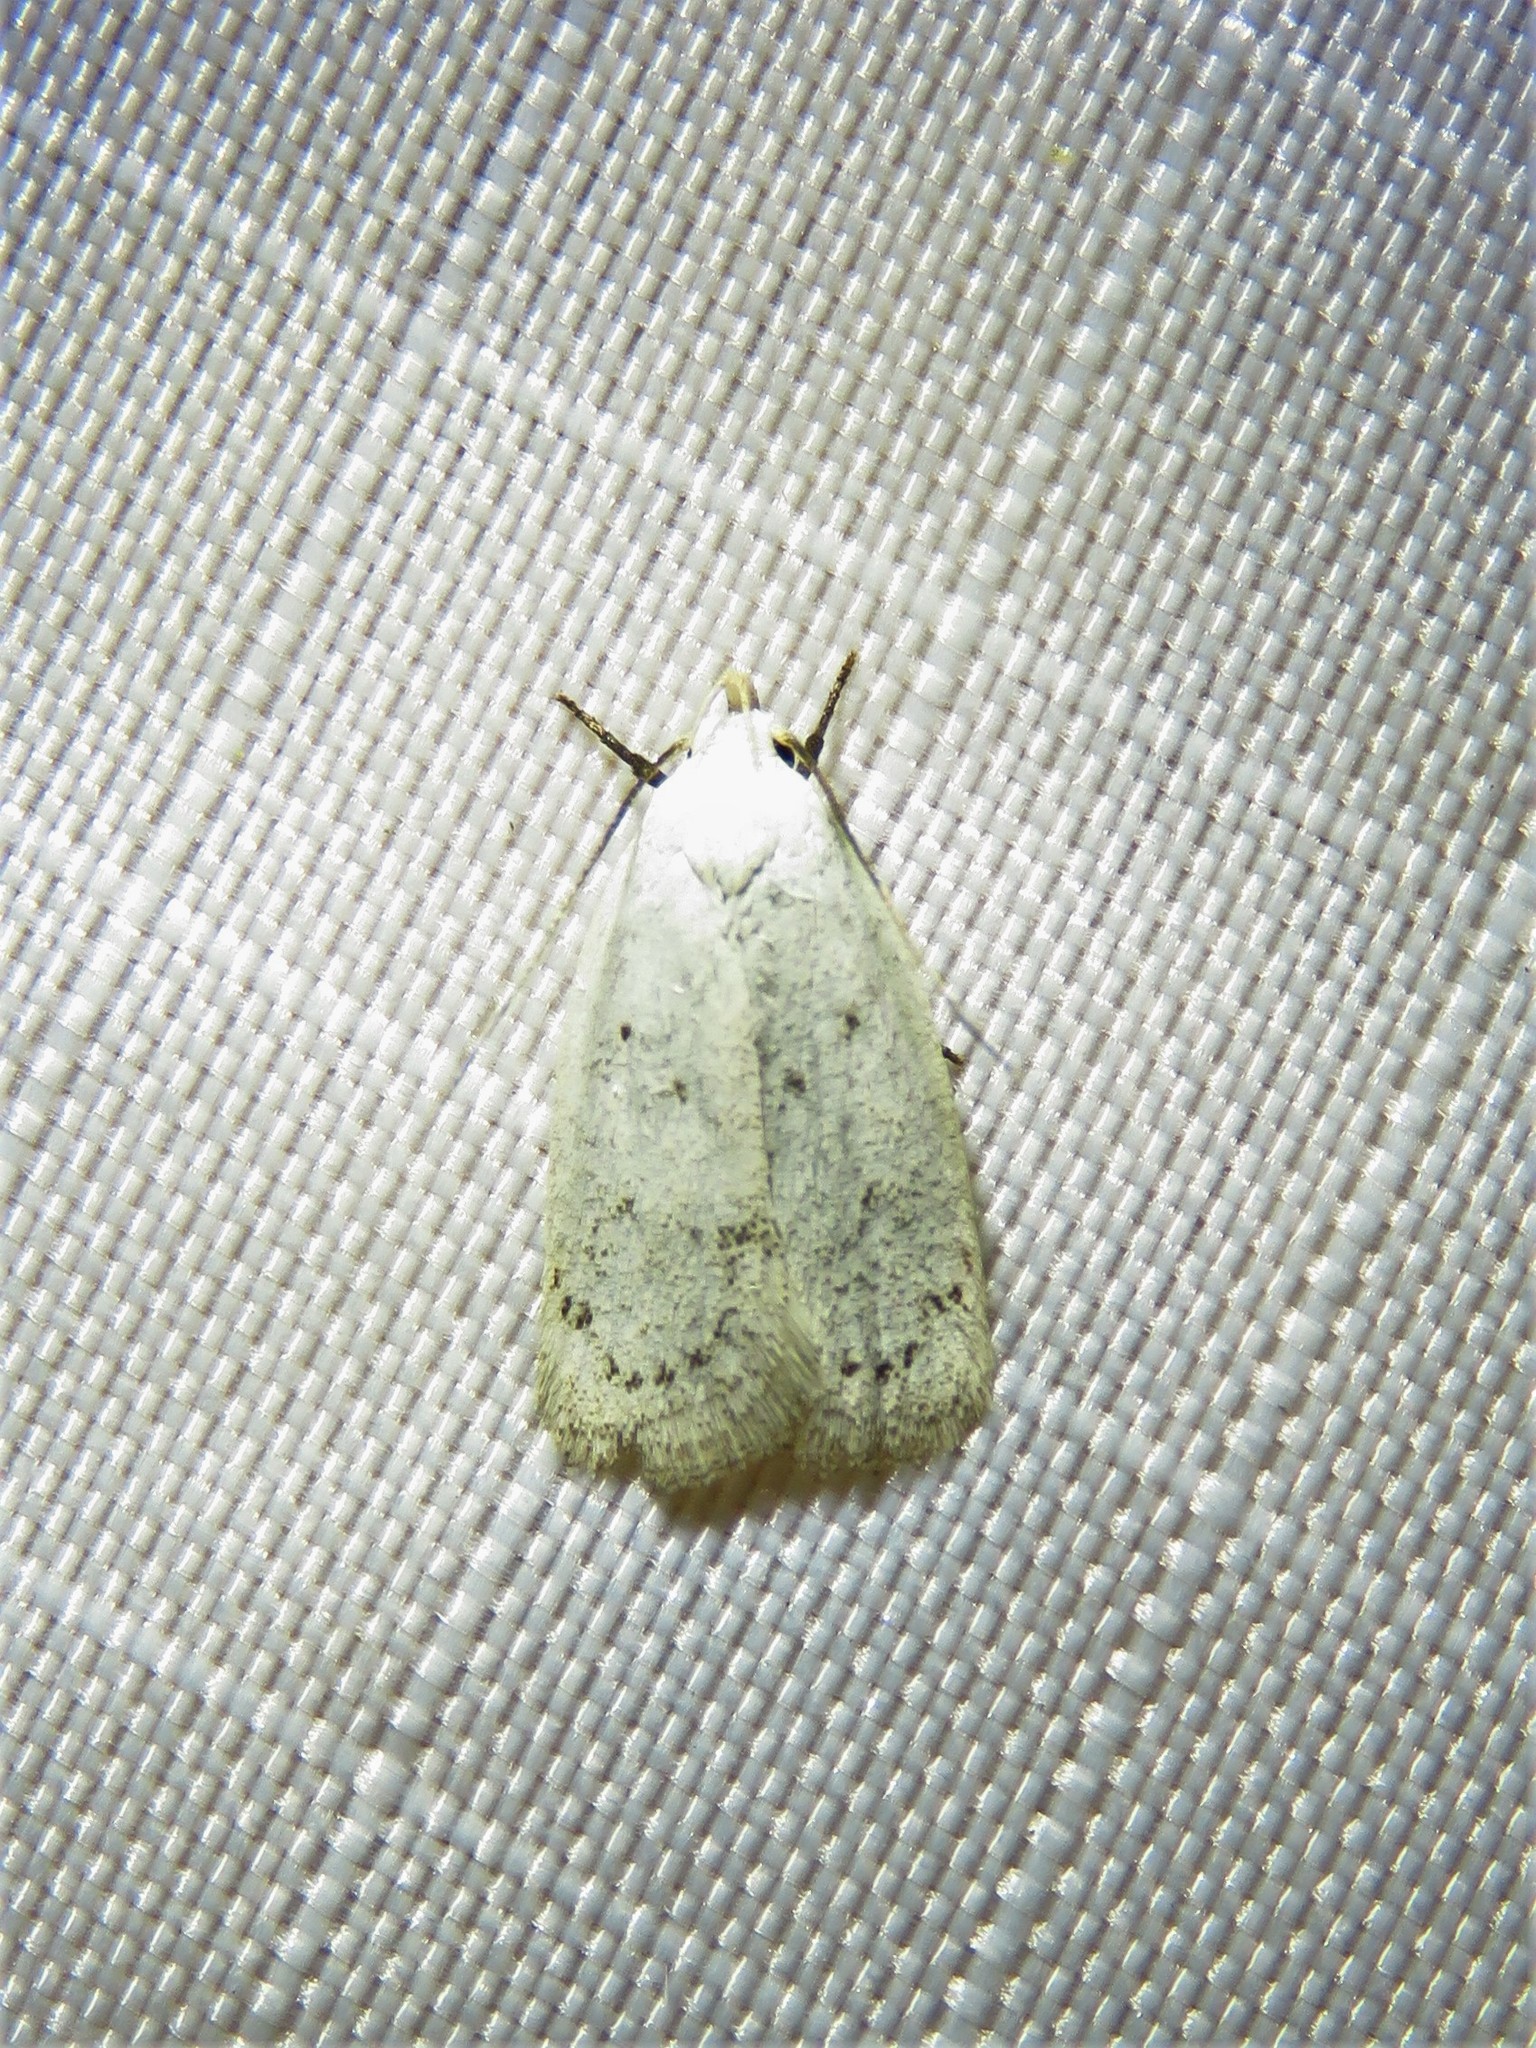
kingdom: Animalia
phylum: Arthropoda
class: Insecta
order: Lepidoptera
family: Oecophoridae
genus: Inga
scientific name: Inga cretacea
